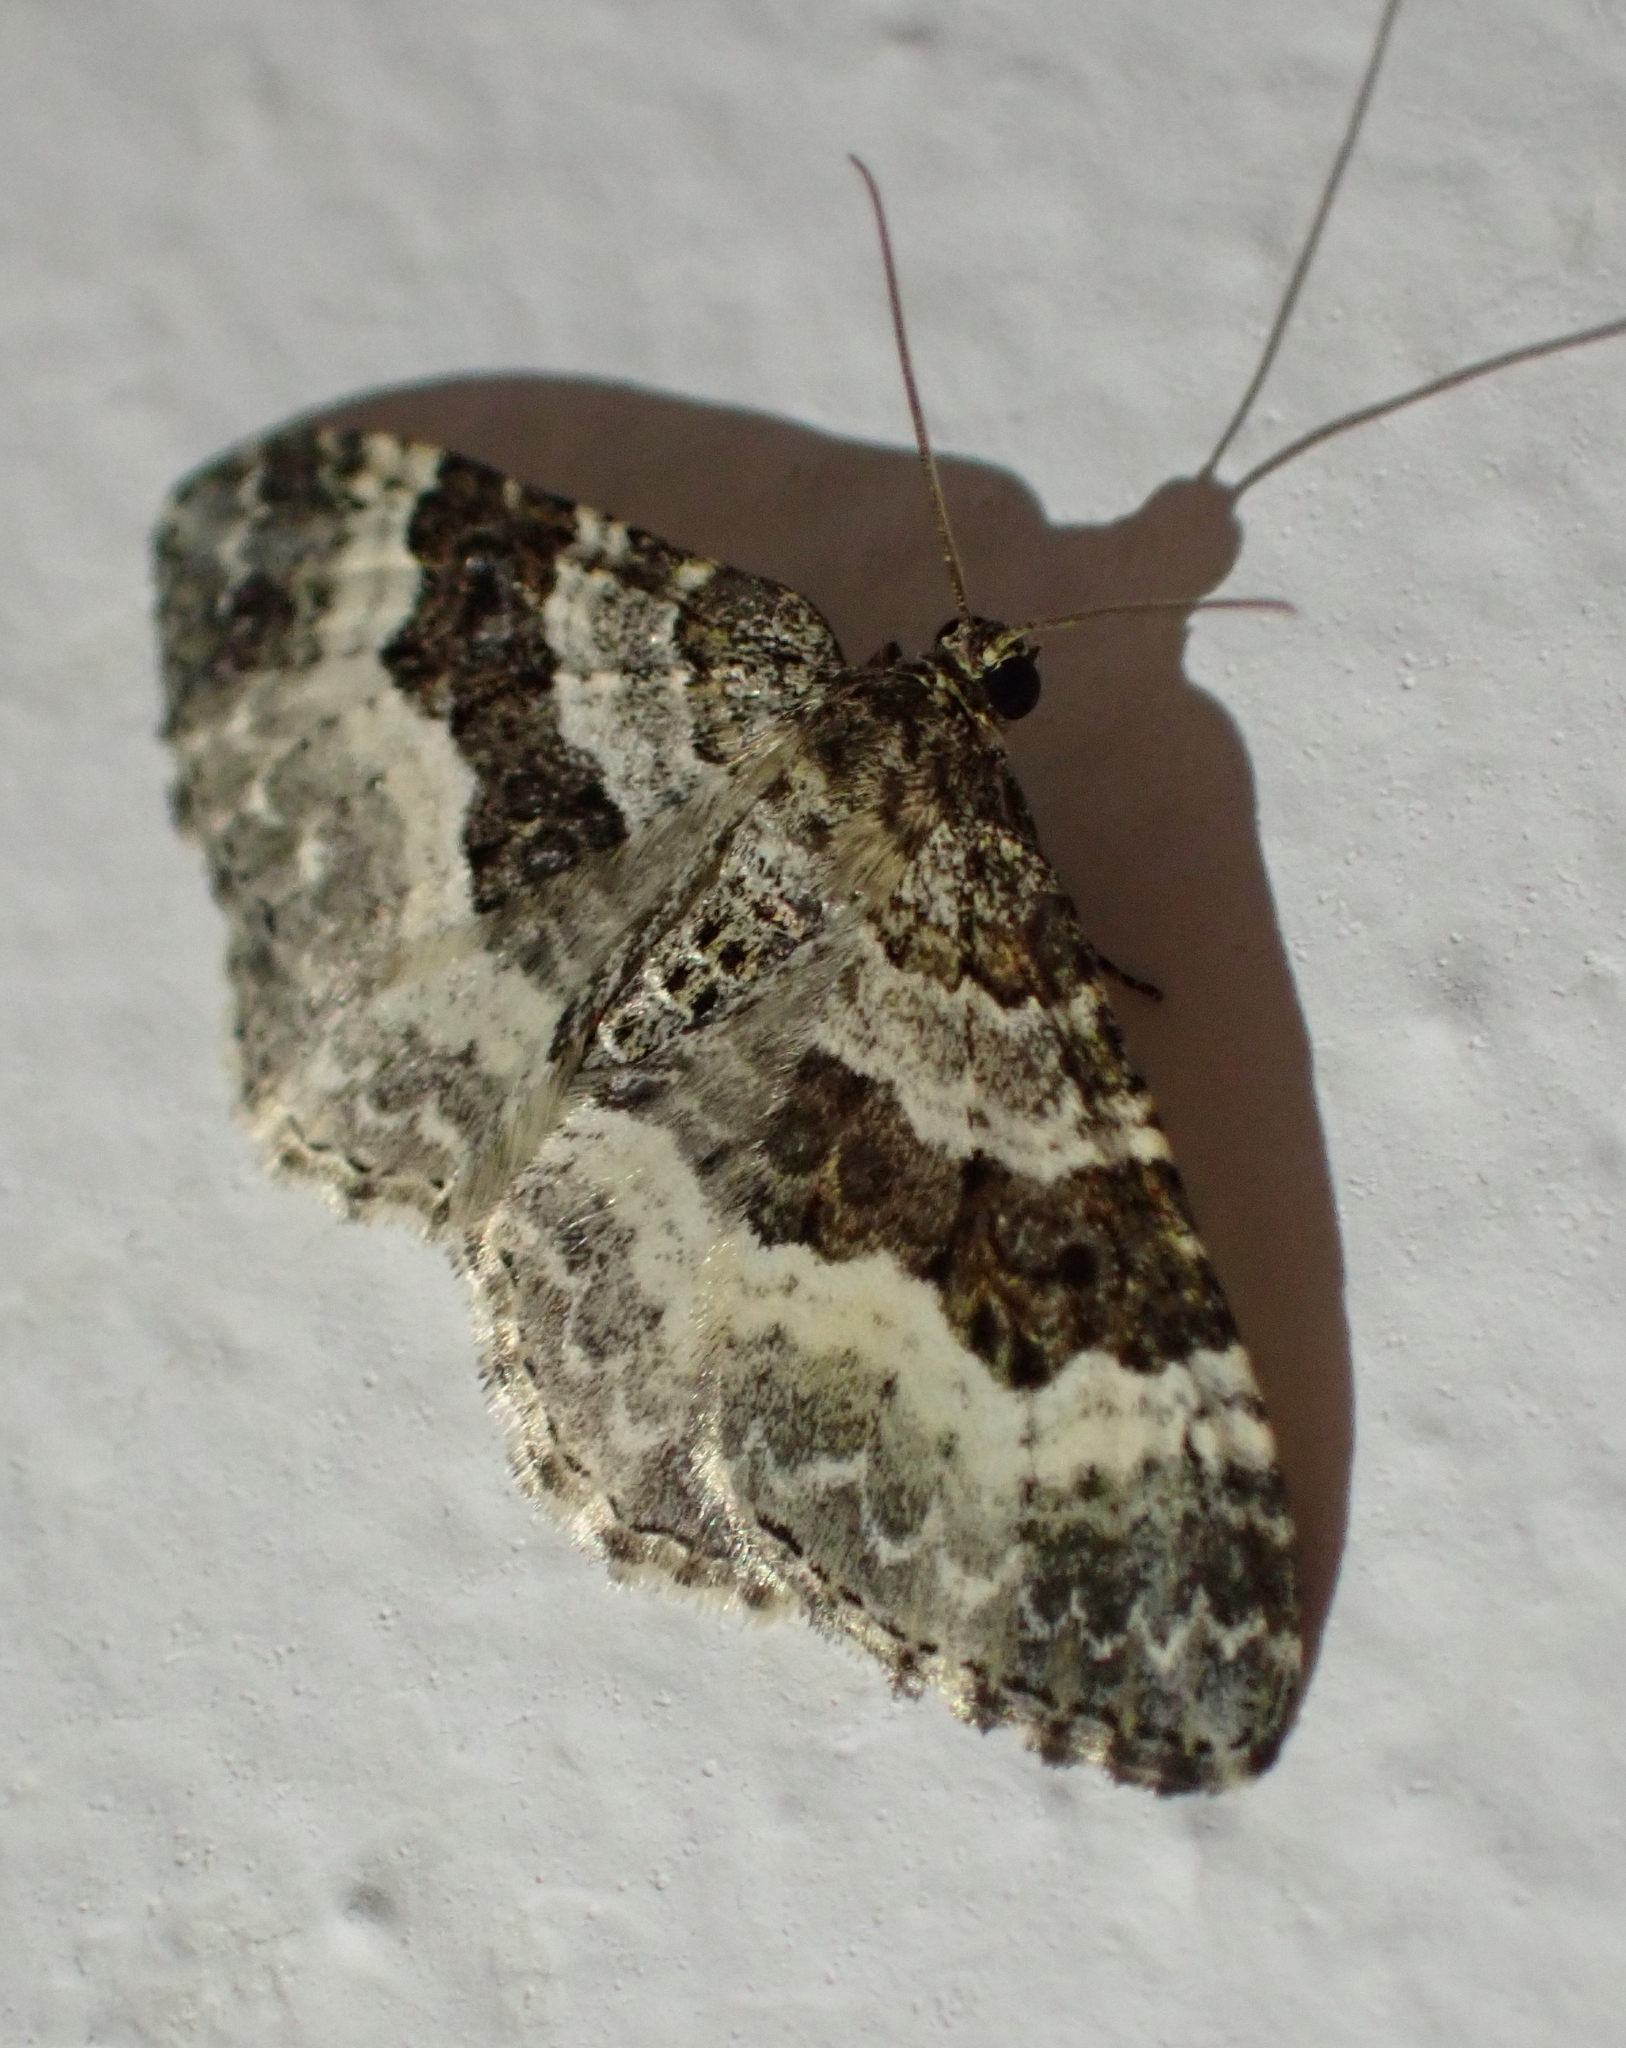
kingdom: Animalia
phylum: Arthropoda
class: Insecta
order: Lepidoptera
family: Geometridae
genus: Epirrhoe
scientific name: Epirrhoe alternata
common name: Common carpet
